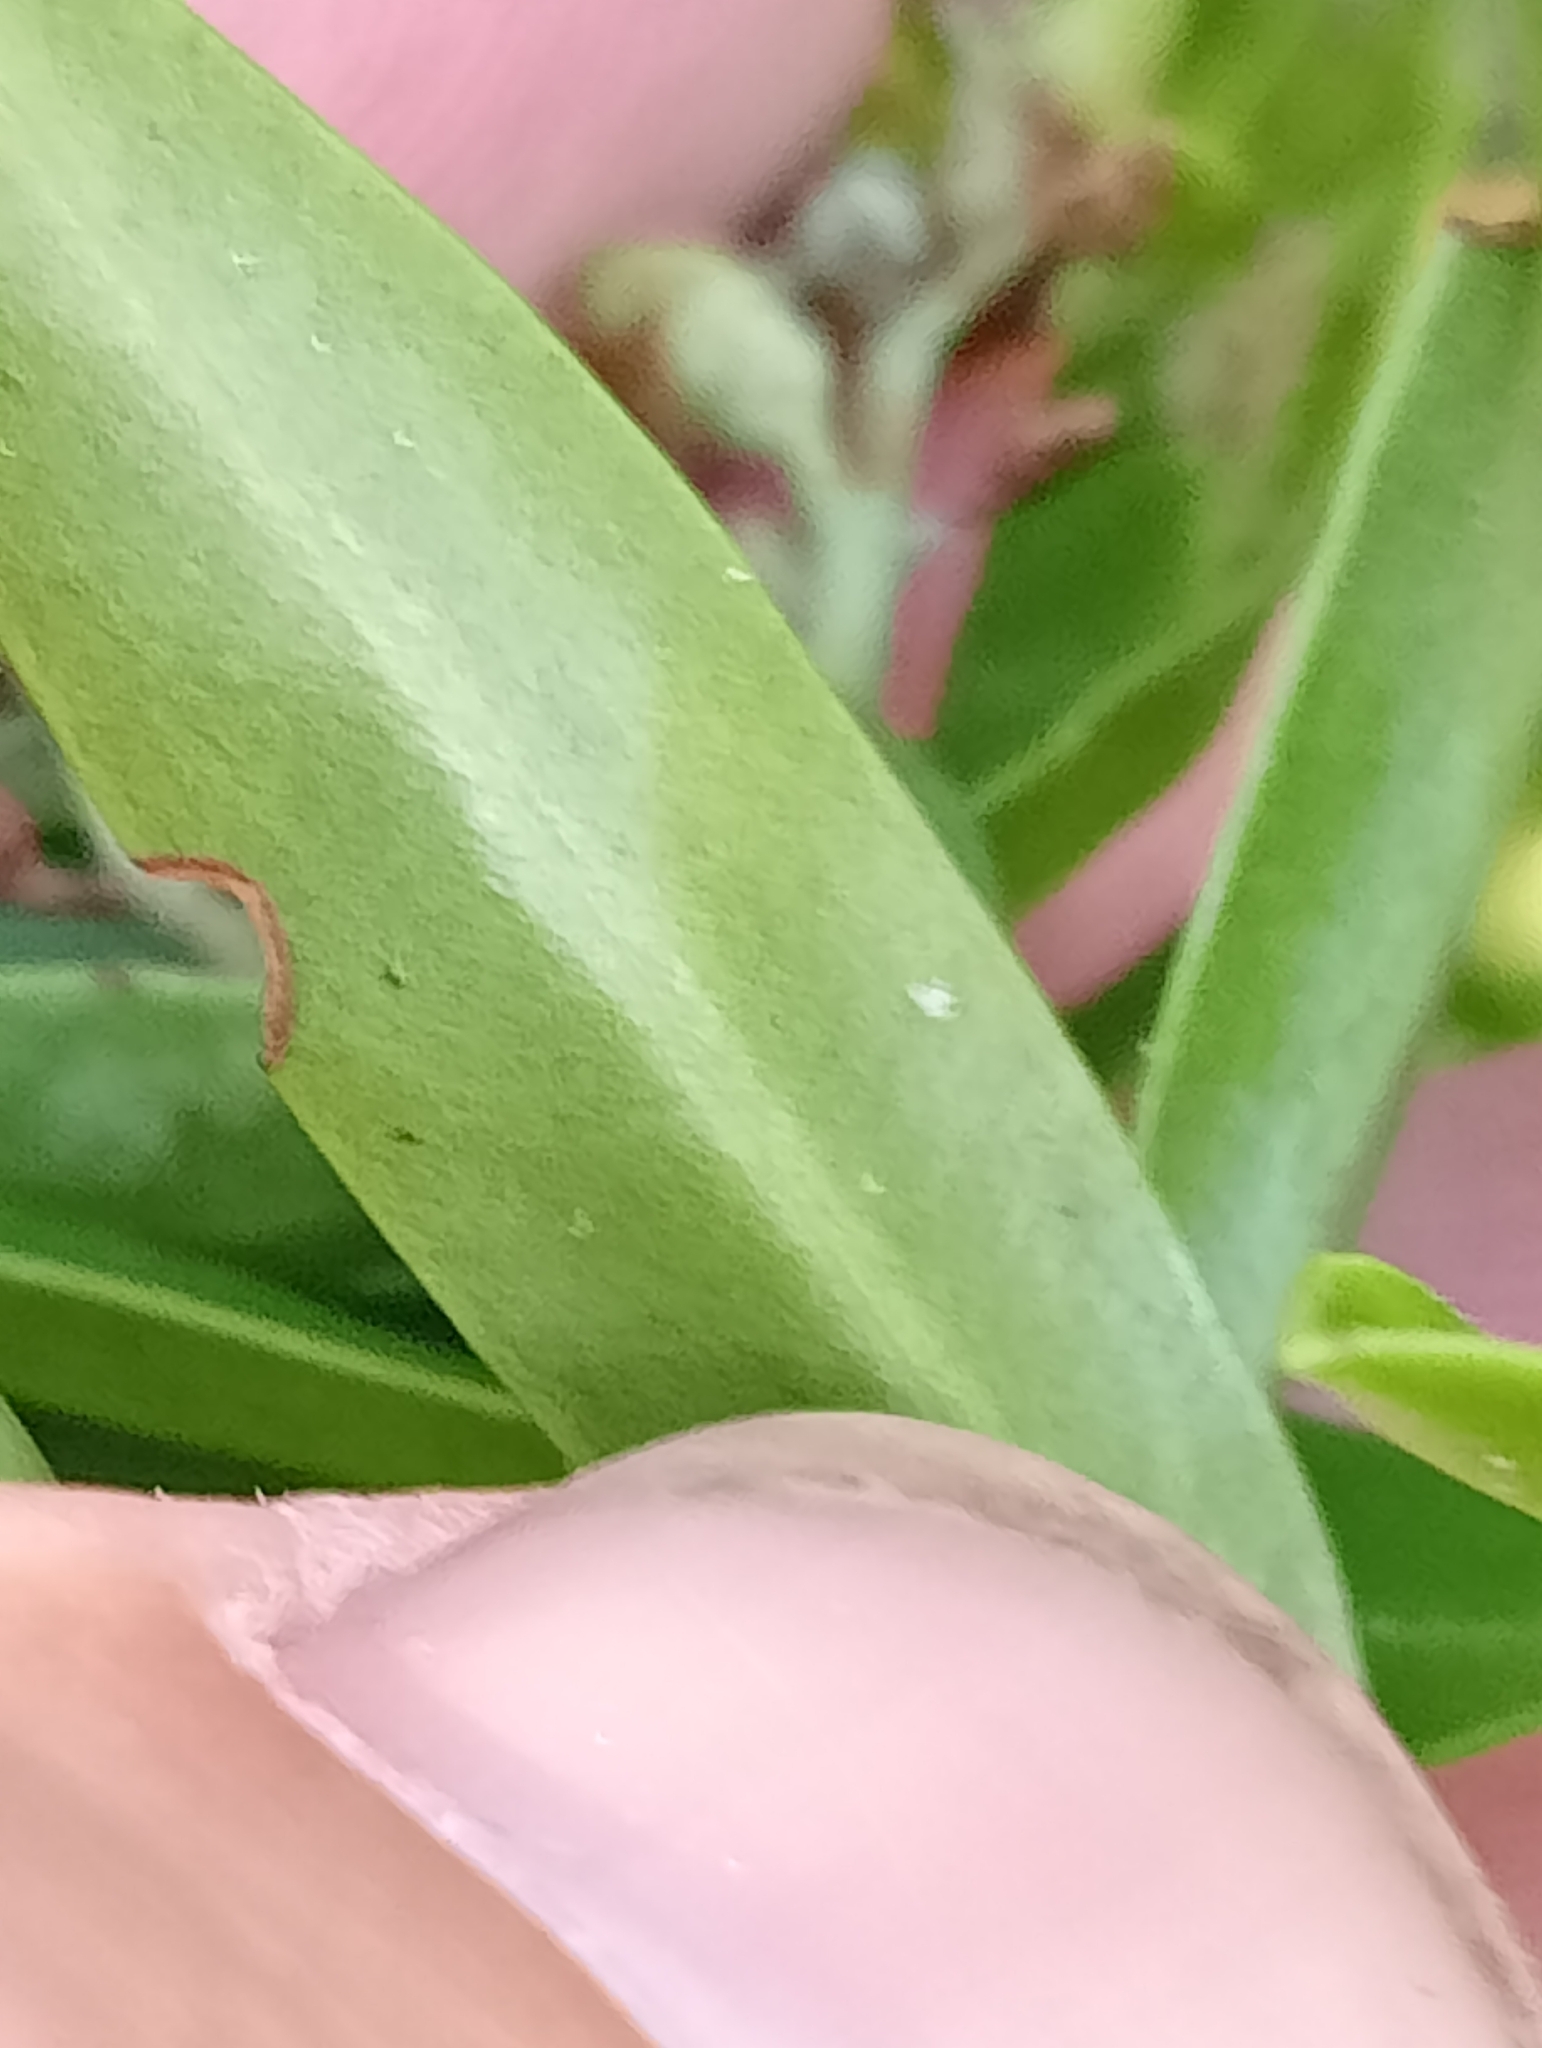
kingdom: Plantae
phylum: Tracheophyta
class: Magnoliopsida
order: Lamiales
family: Plantaginaceae
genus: Veronica
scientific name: Veronica subalpina
